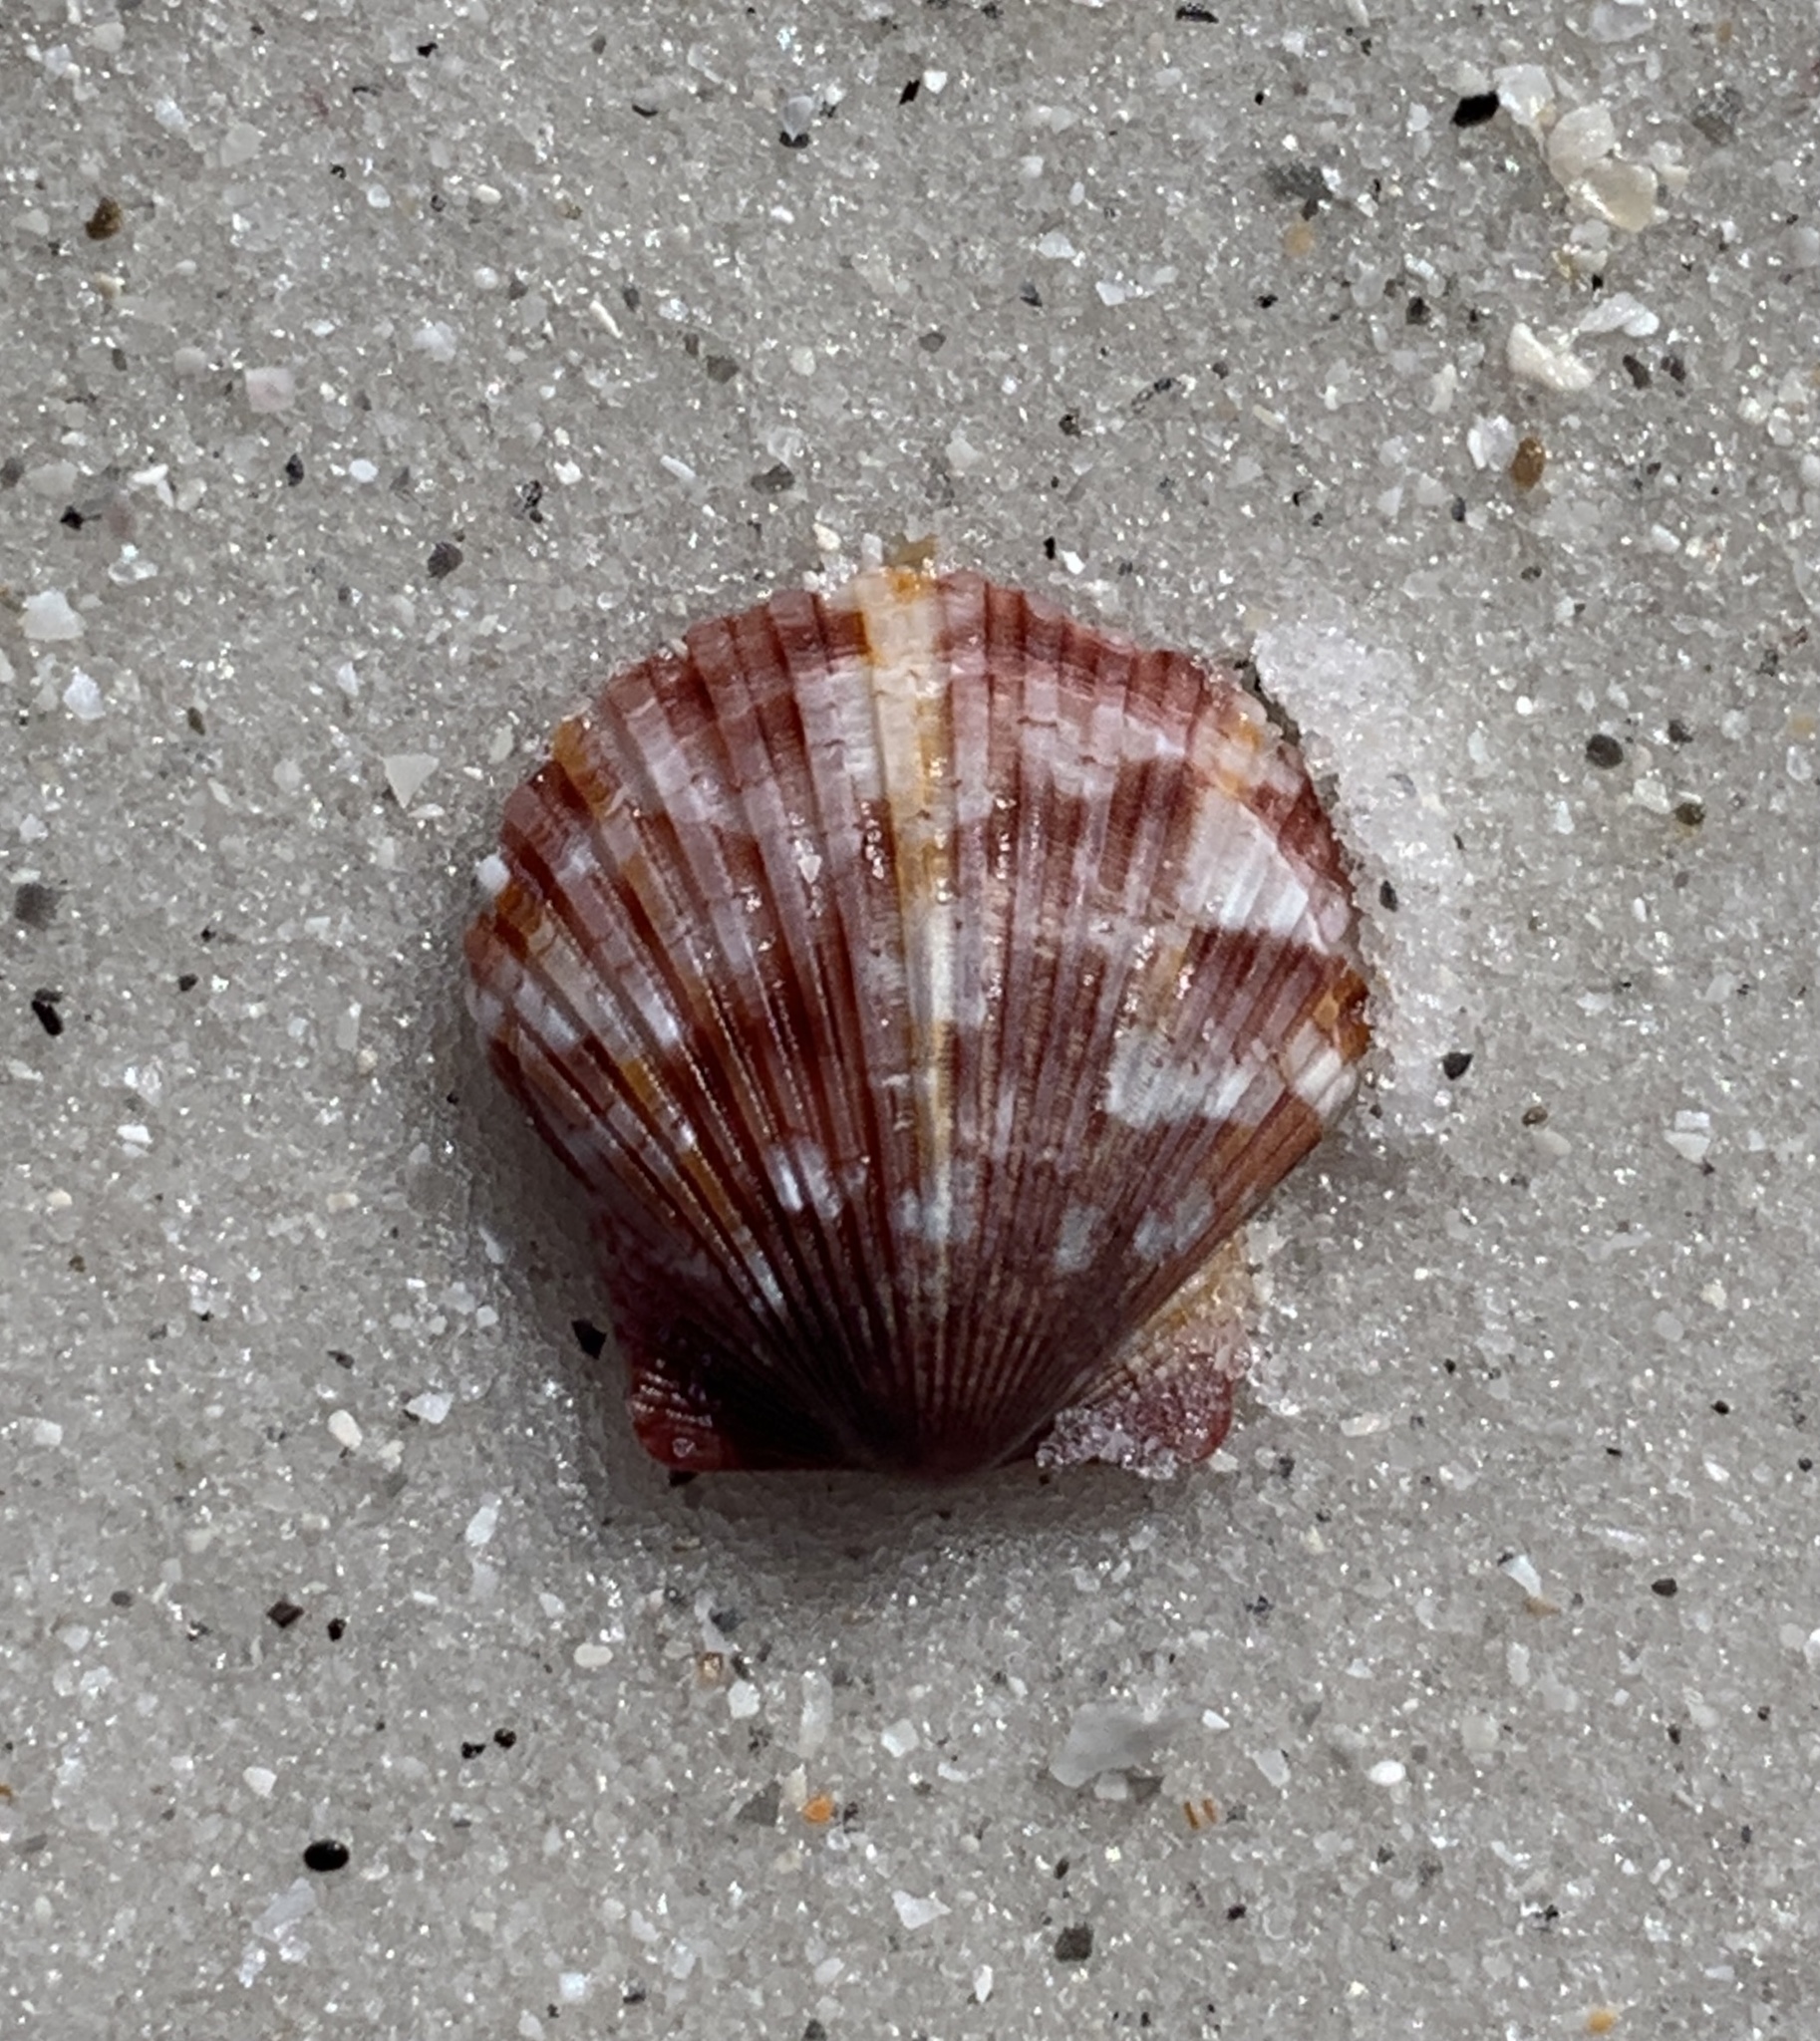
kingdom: Animalia
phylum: Mollusca
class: Bivalvia
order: Pectinida
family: Pectinidae
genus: Argopecten
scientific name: Argopecten gibbus
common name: Atlantic calico scallop
